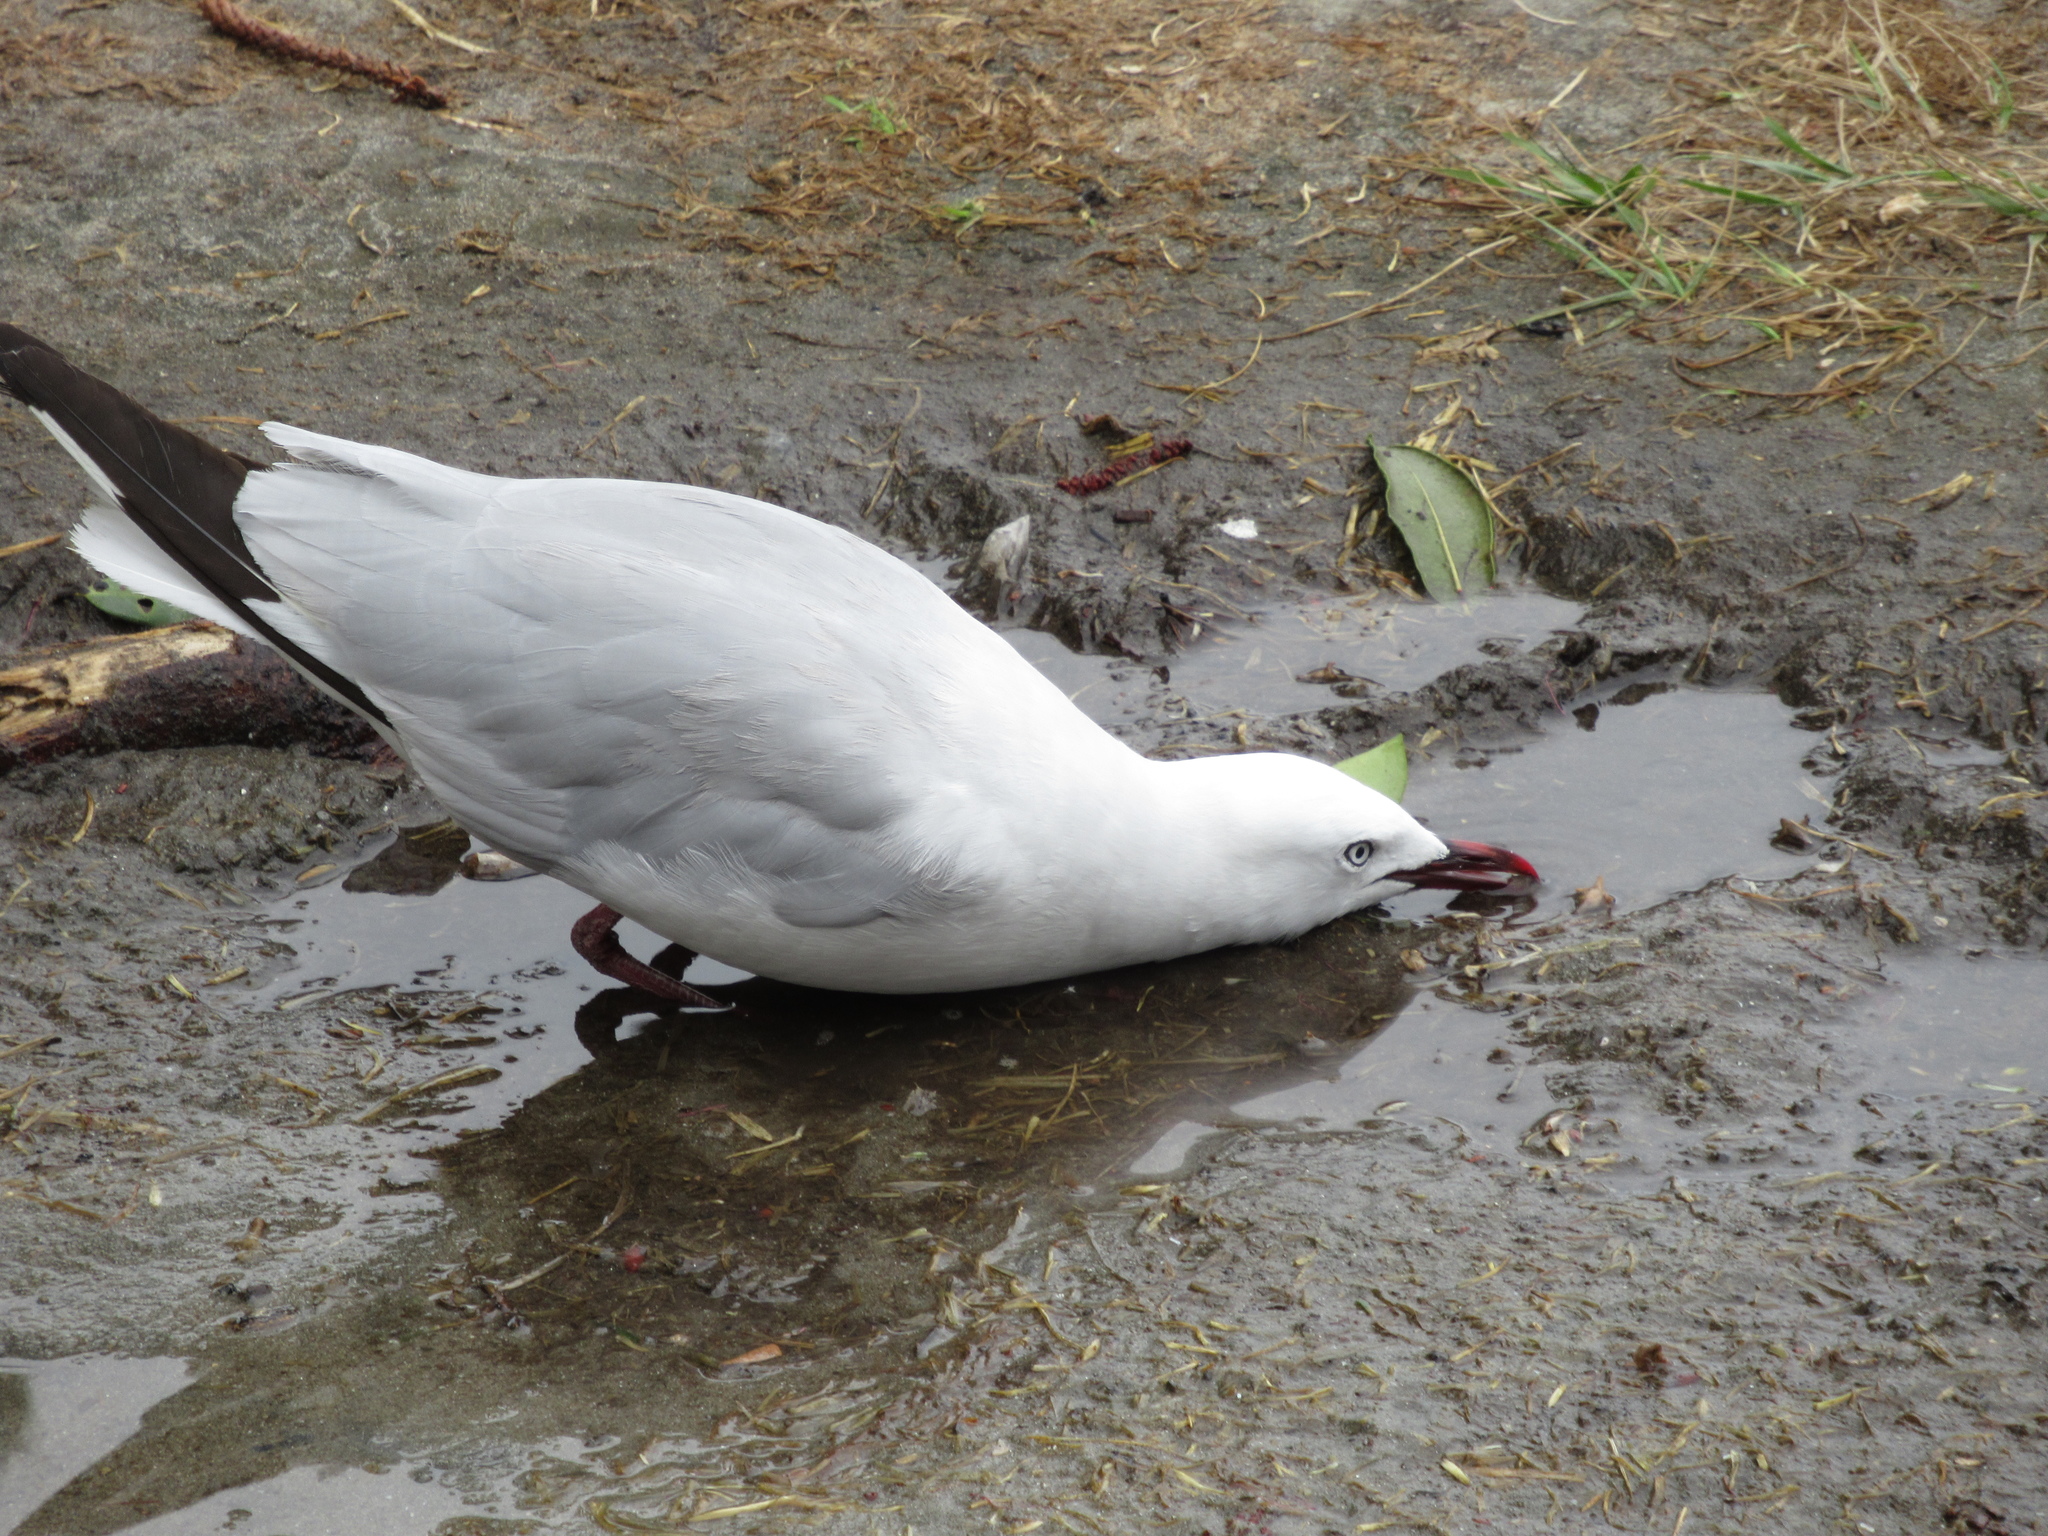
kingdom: Animalia
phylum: Chordata
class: Aves
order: Charadriiformes
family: Laridae
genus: Chroicocephalus
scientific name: Chroicocephalus novaehollandiae
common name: Silver gull
